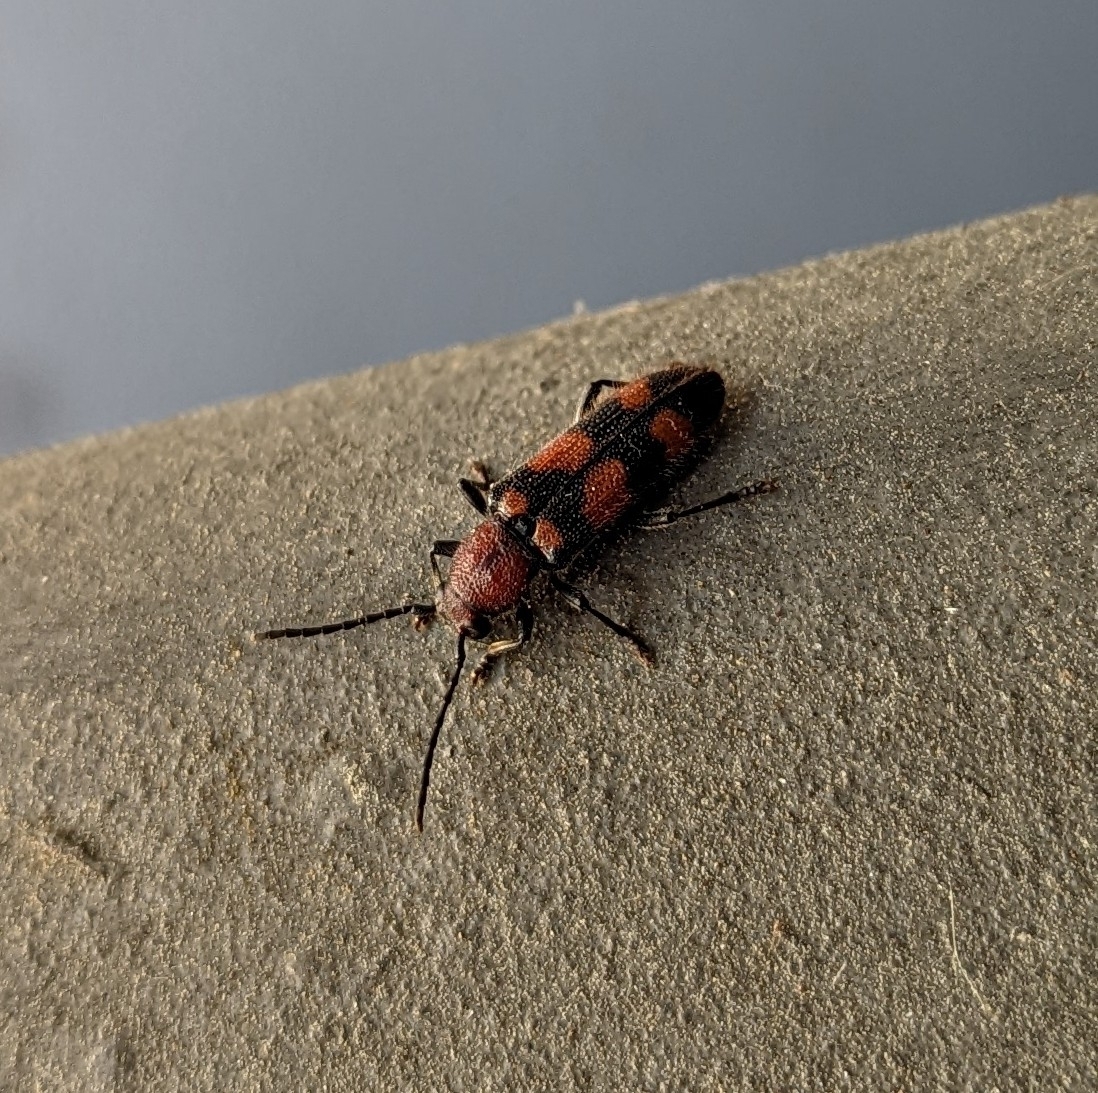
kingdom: Animalia
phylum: Arthropoda
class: Insecta
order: Coleoptera
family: Cerambycidae
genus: Zagymnus
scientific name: Zagymnus clerinus
